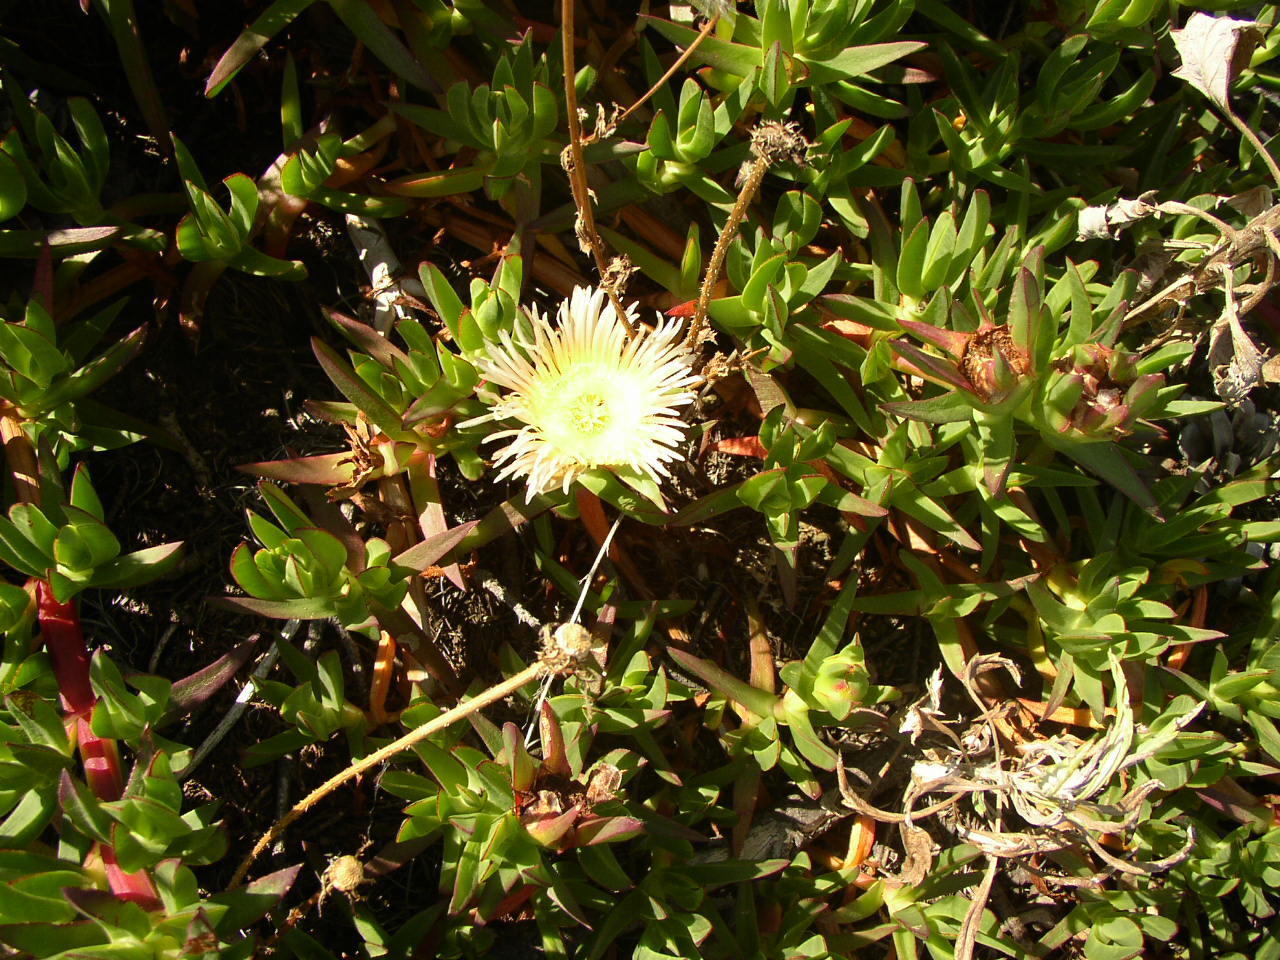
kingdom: Plantae
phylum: Tracheophyta
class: Magnoliopsida
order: Caryophyllales
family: Aizoaceae
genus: Carpobrotus
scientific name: Carpobrotus edulis
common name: Hottentot-fig
